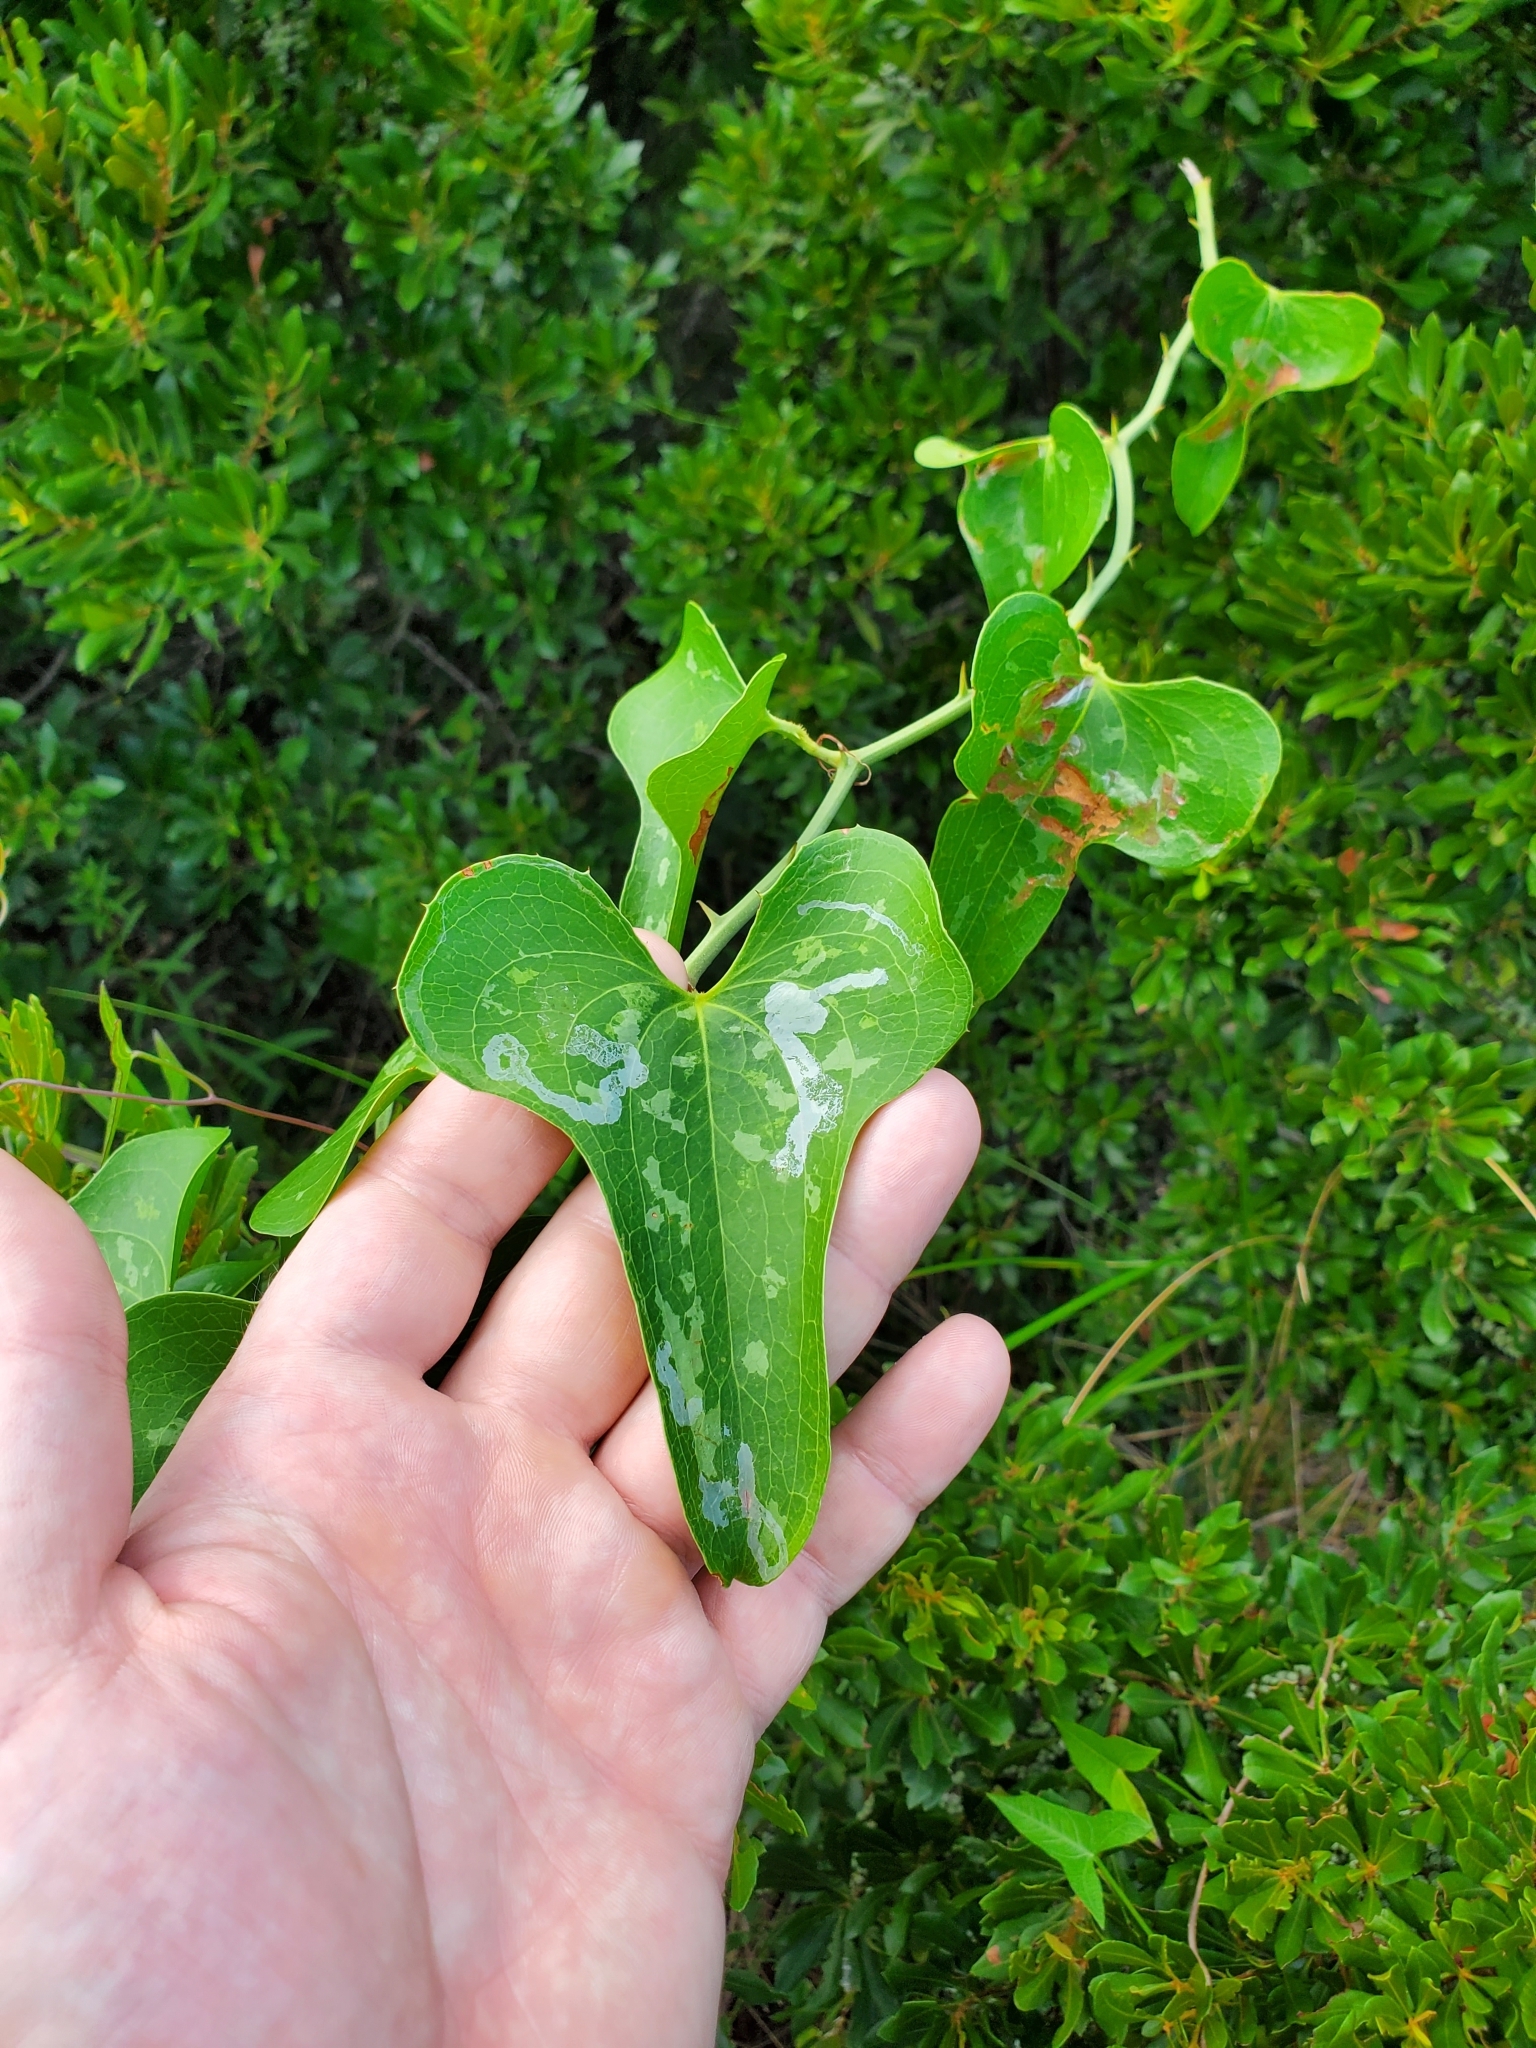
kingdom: Plantae
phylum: Tracheophyta
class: Liliopsida
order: Liliales
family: Smilacaceae
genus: Smilax
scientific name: Smilax bona-nox
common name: Catbrier
